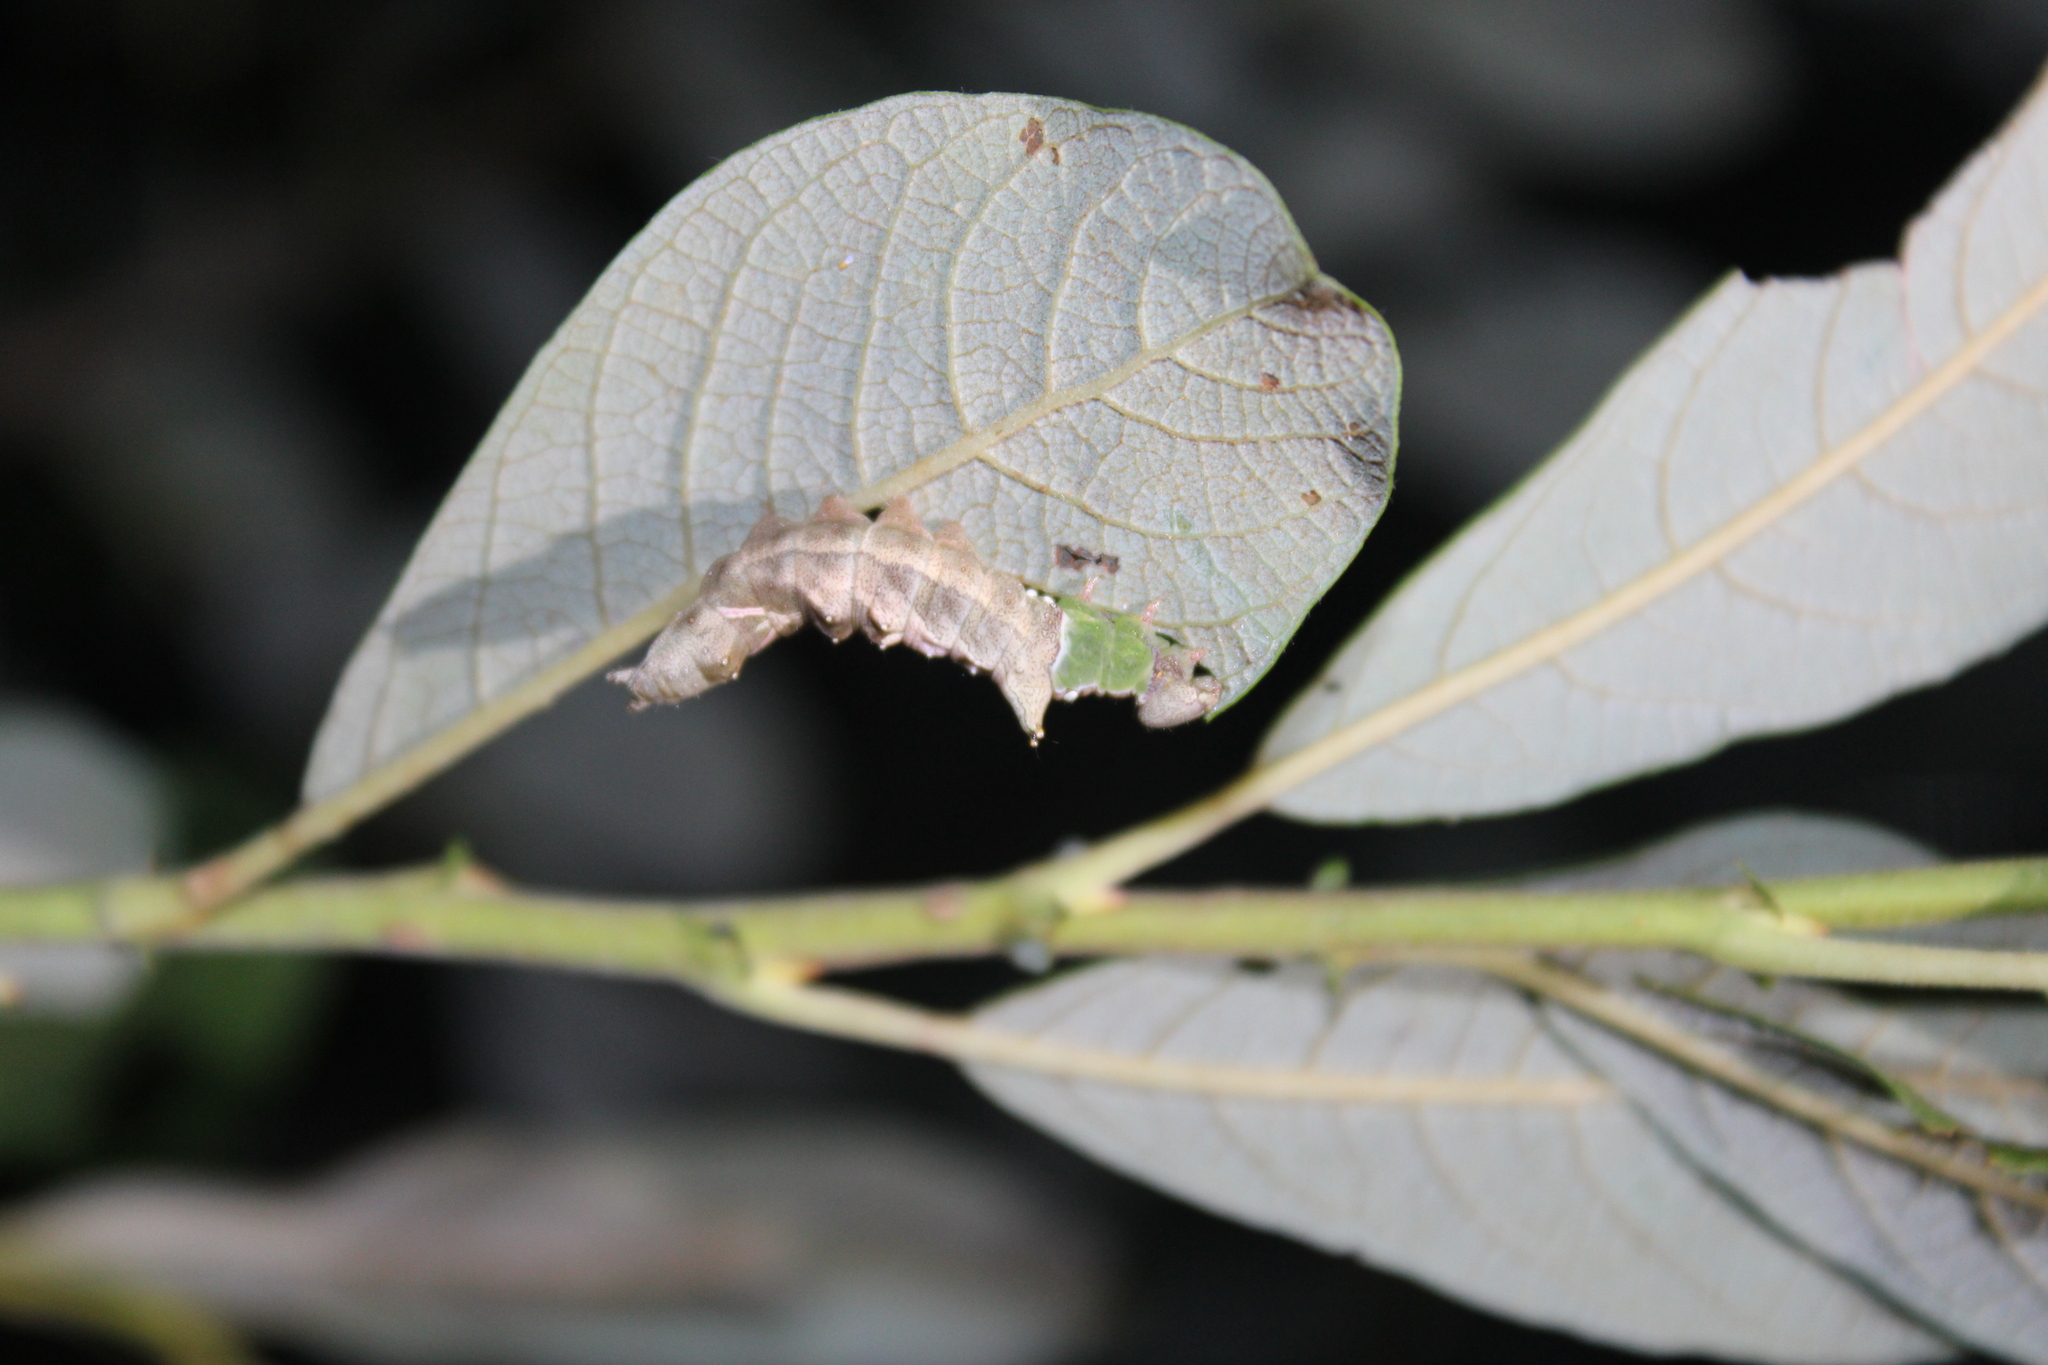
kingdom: Animalia
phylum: Arthropoda
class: Insecta
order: Lepidoptera
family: Notodontidae
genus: Schizura
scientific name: Schizura
